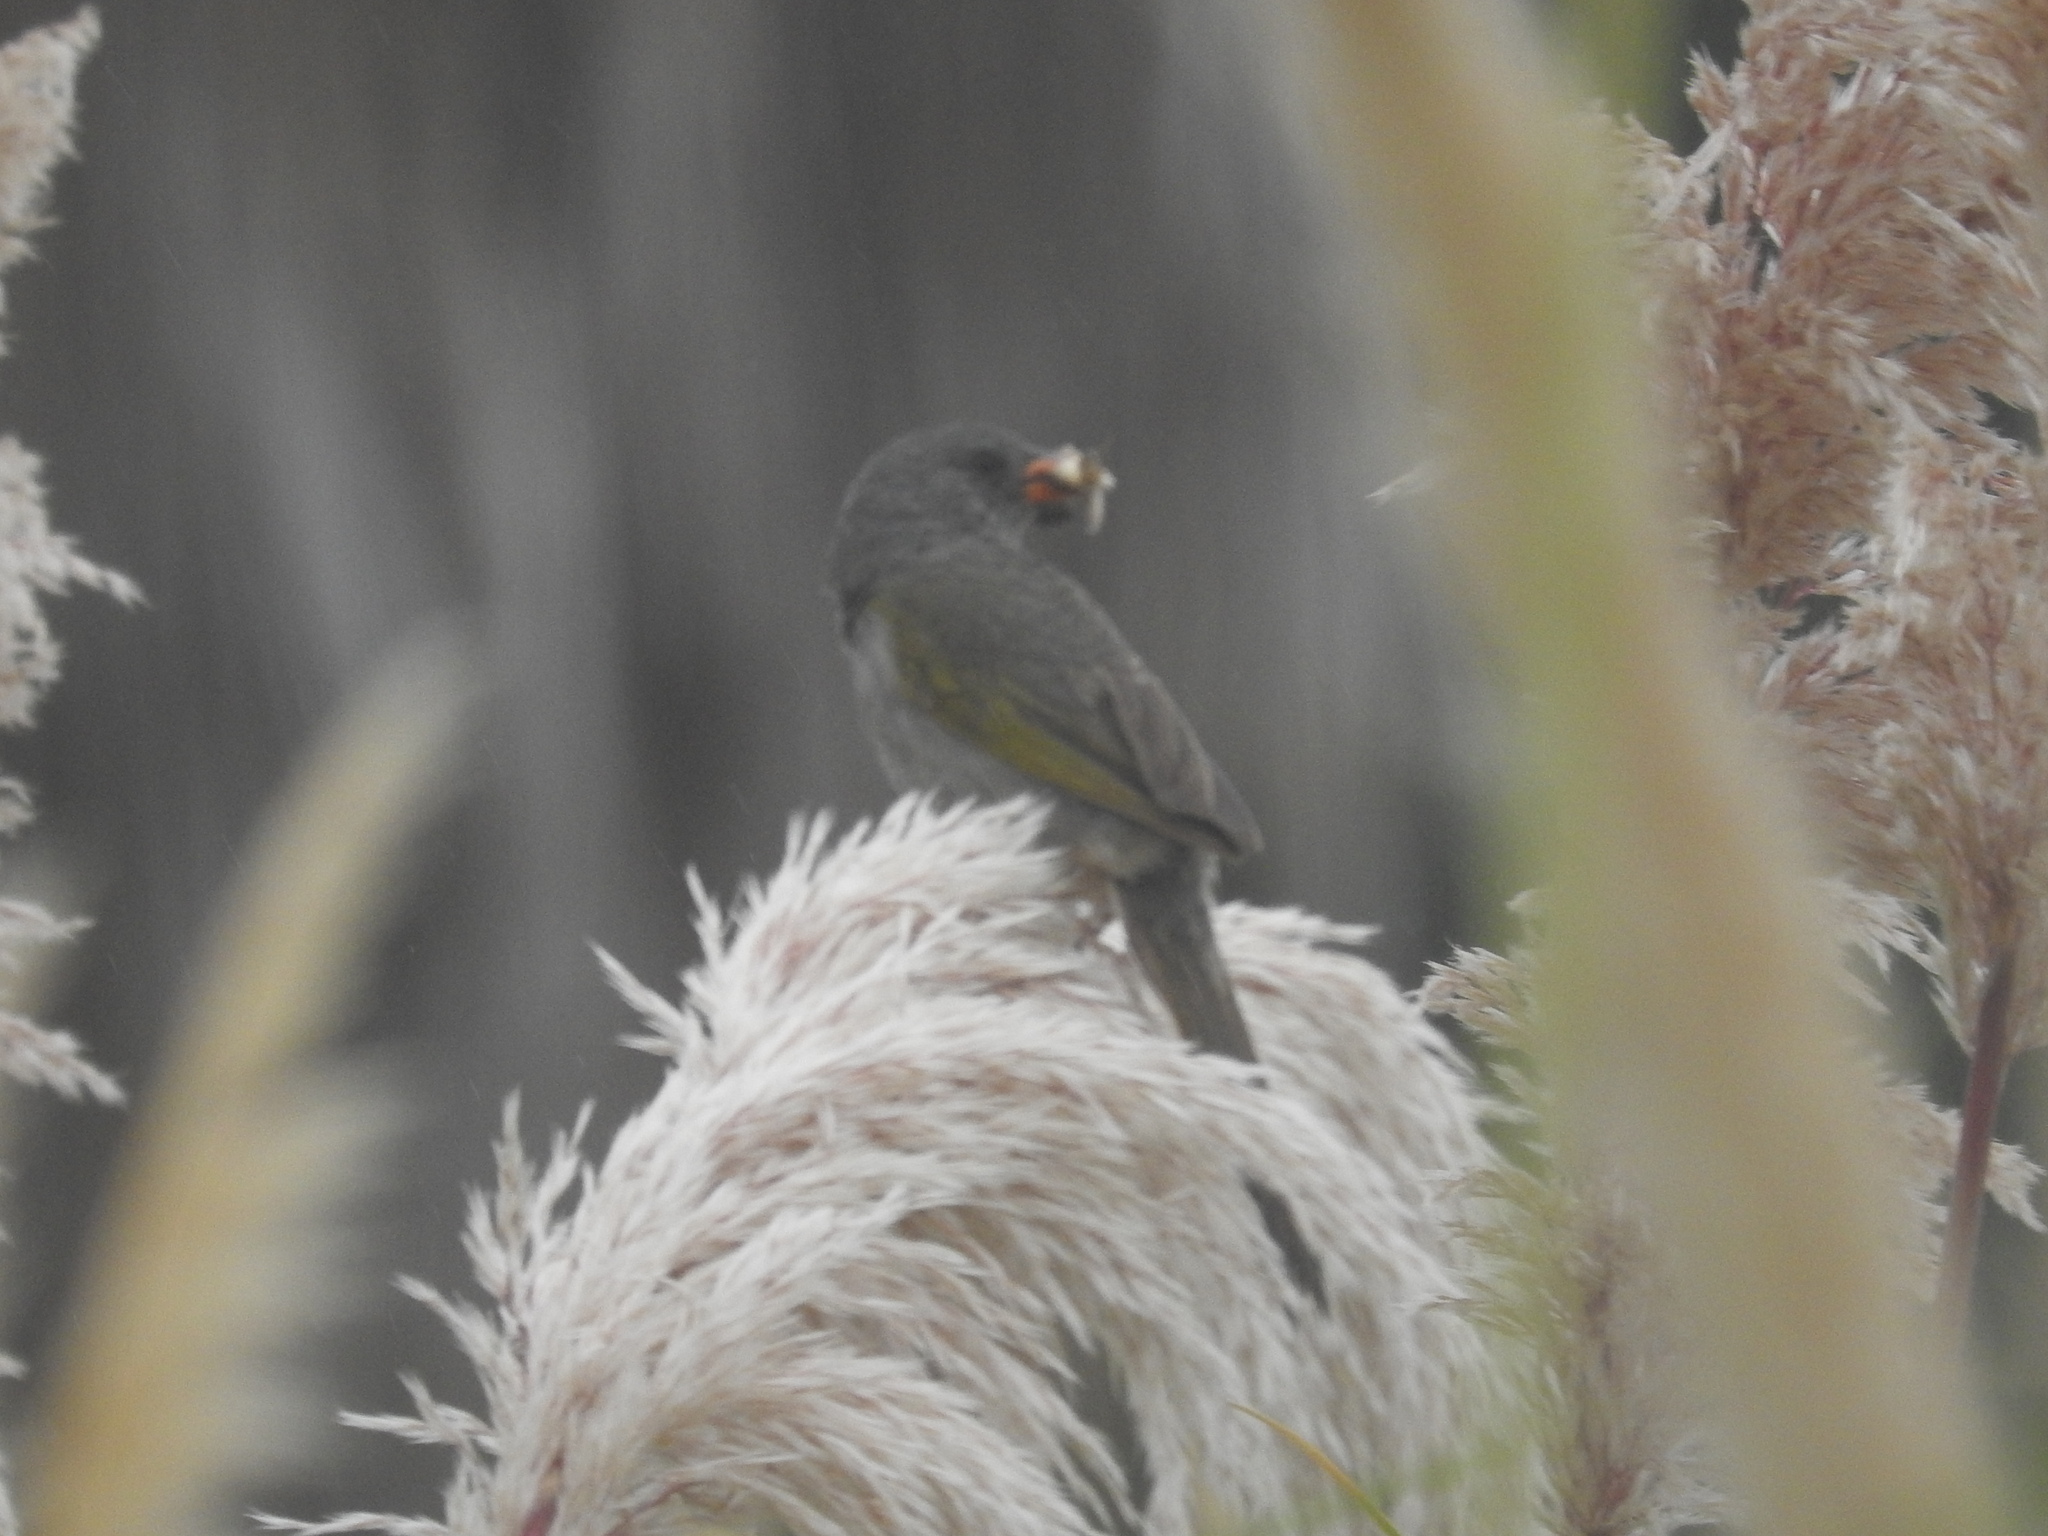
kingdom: Animalia
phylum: Chordata
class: Aves
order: Passeriformes
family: Thraupidae
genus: Embernagra
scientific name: Embernagra platensis
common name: Pampa finch
